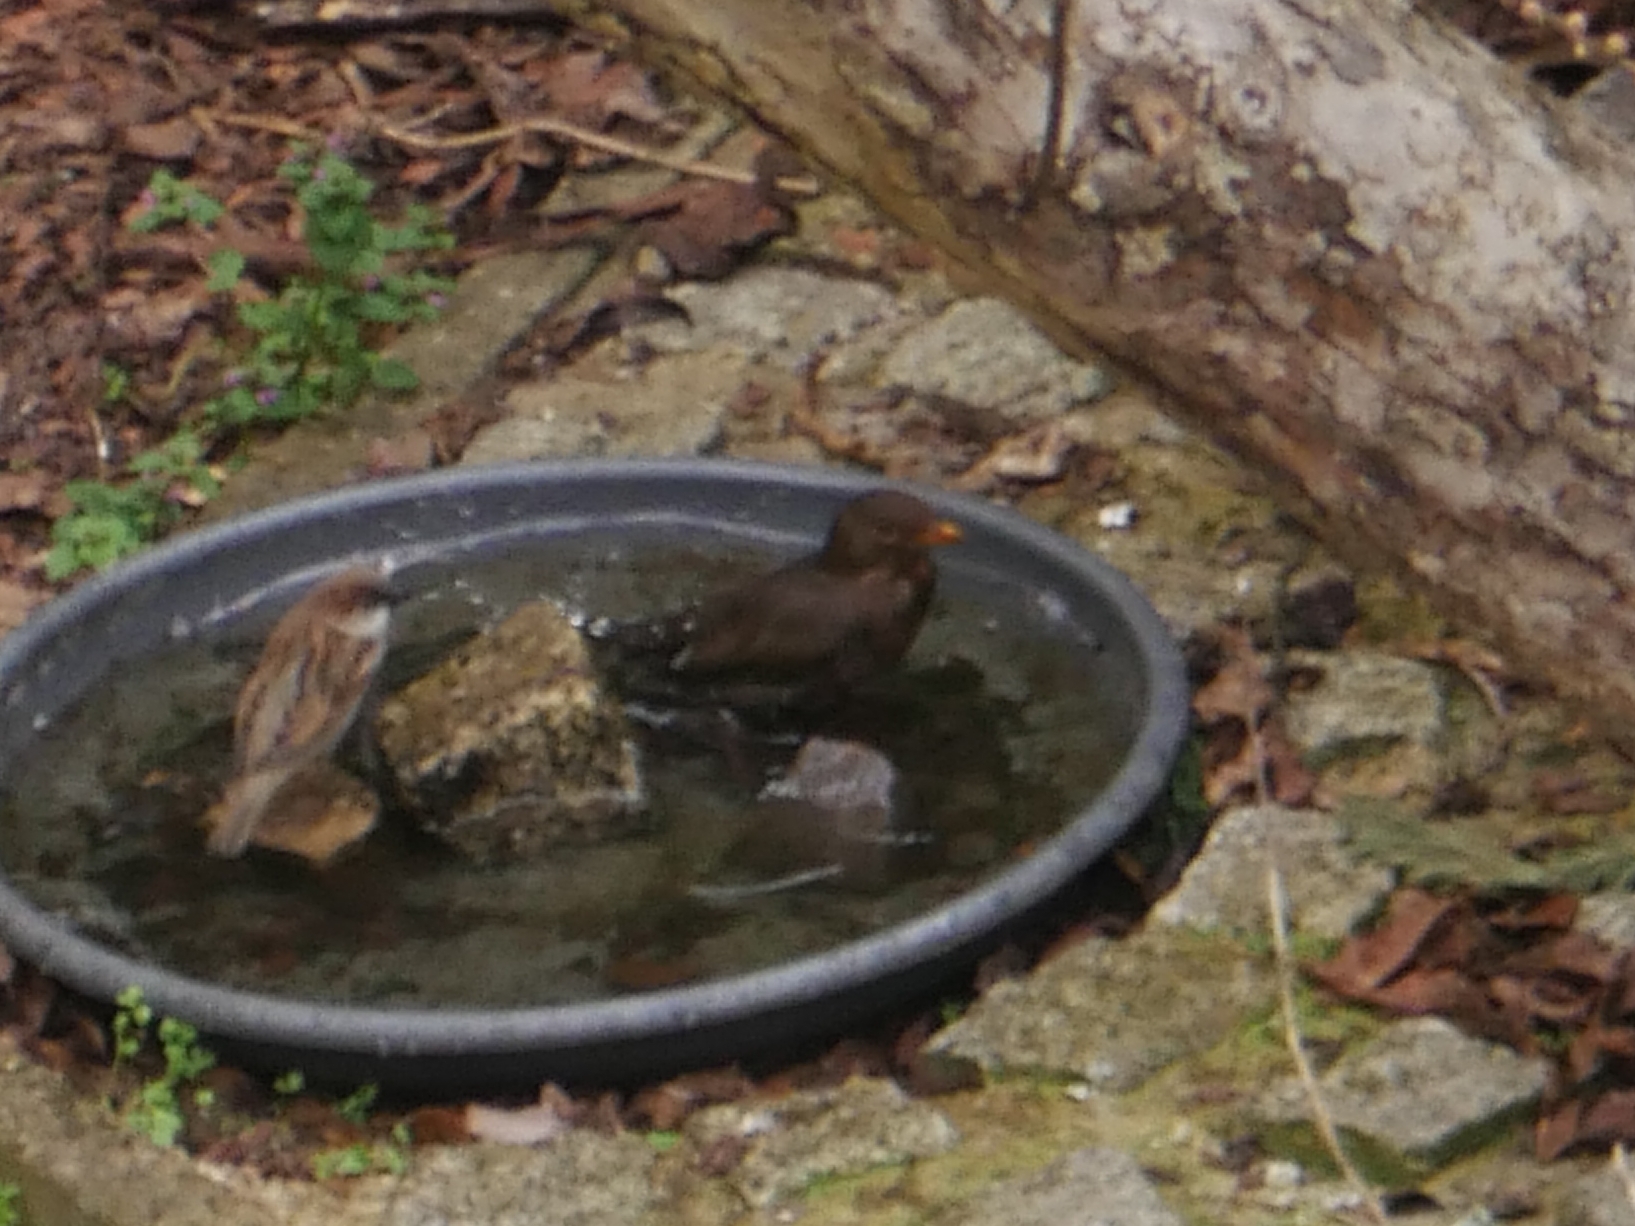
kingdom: Animalia
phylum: Chordata
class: Aves
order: Passeriformes
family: Turdidae
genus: Turdus
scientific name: Turdus merula
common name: Common blackbird
